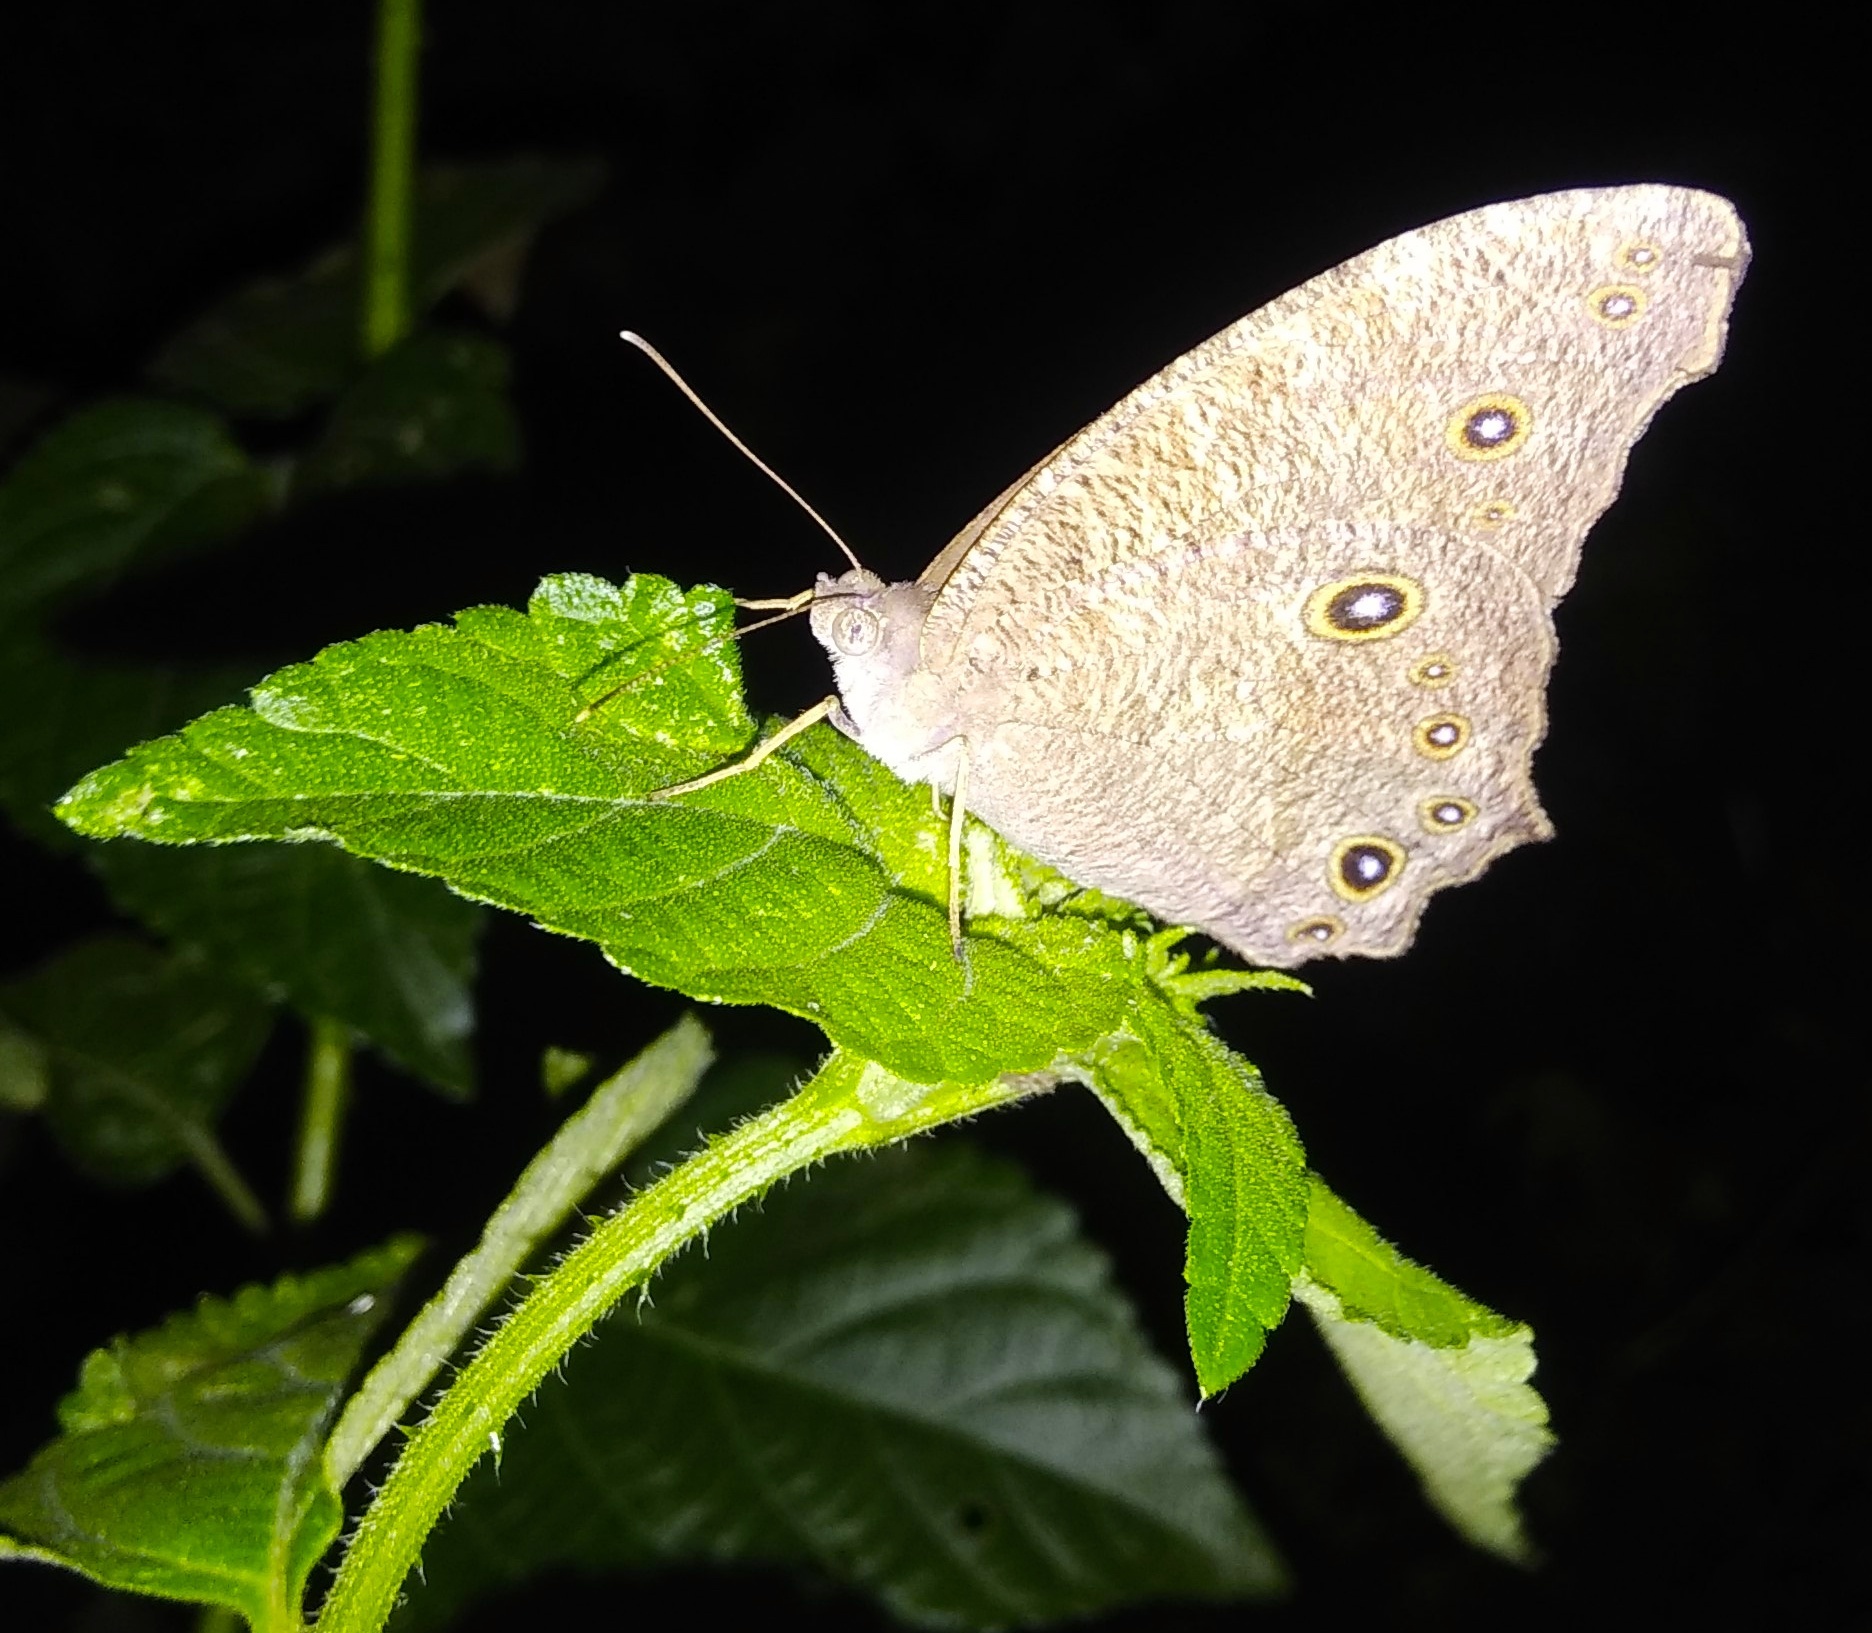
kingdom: Animalia
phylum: Arthropoda
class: Insecta
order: Lepidoptera
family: Nymphalidae
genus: Melanitis
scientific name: Melanitis leda
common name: Twilight brown
